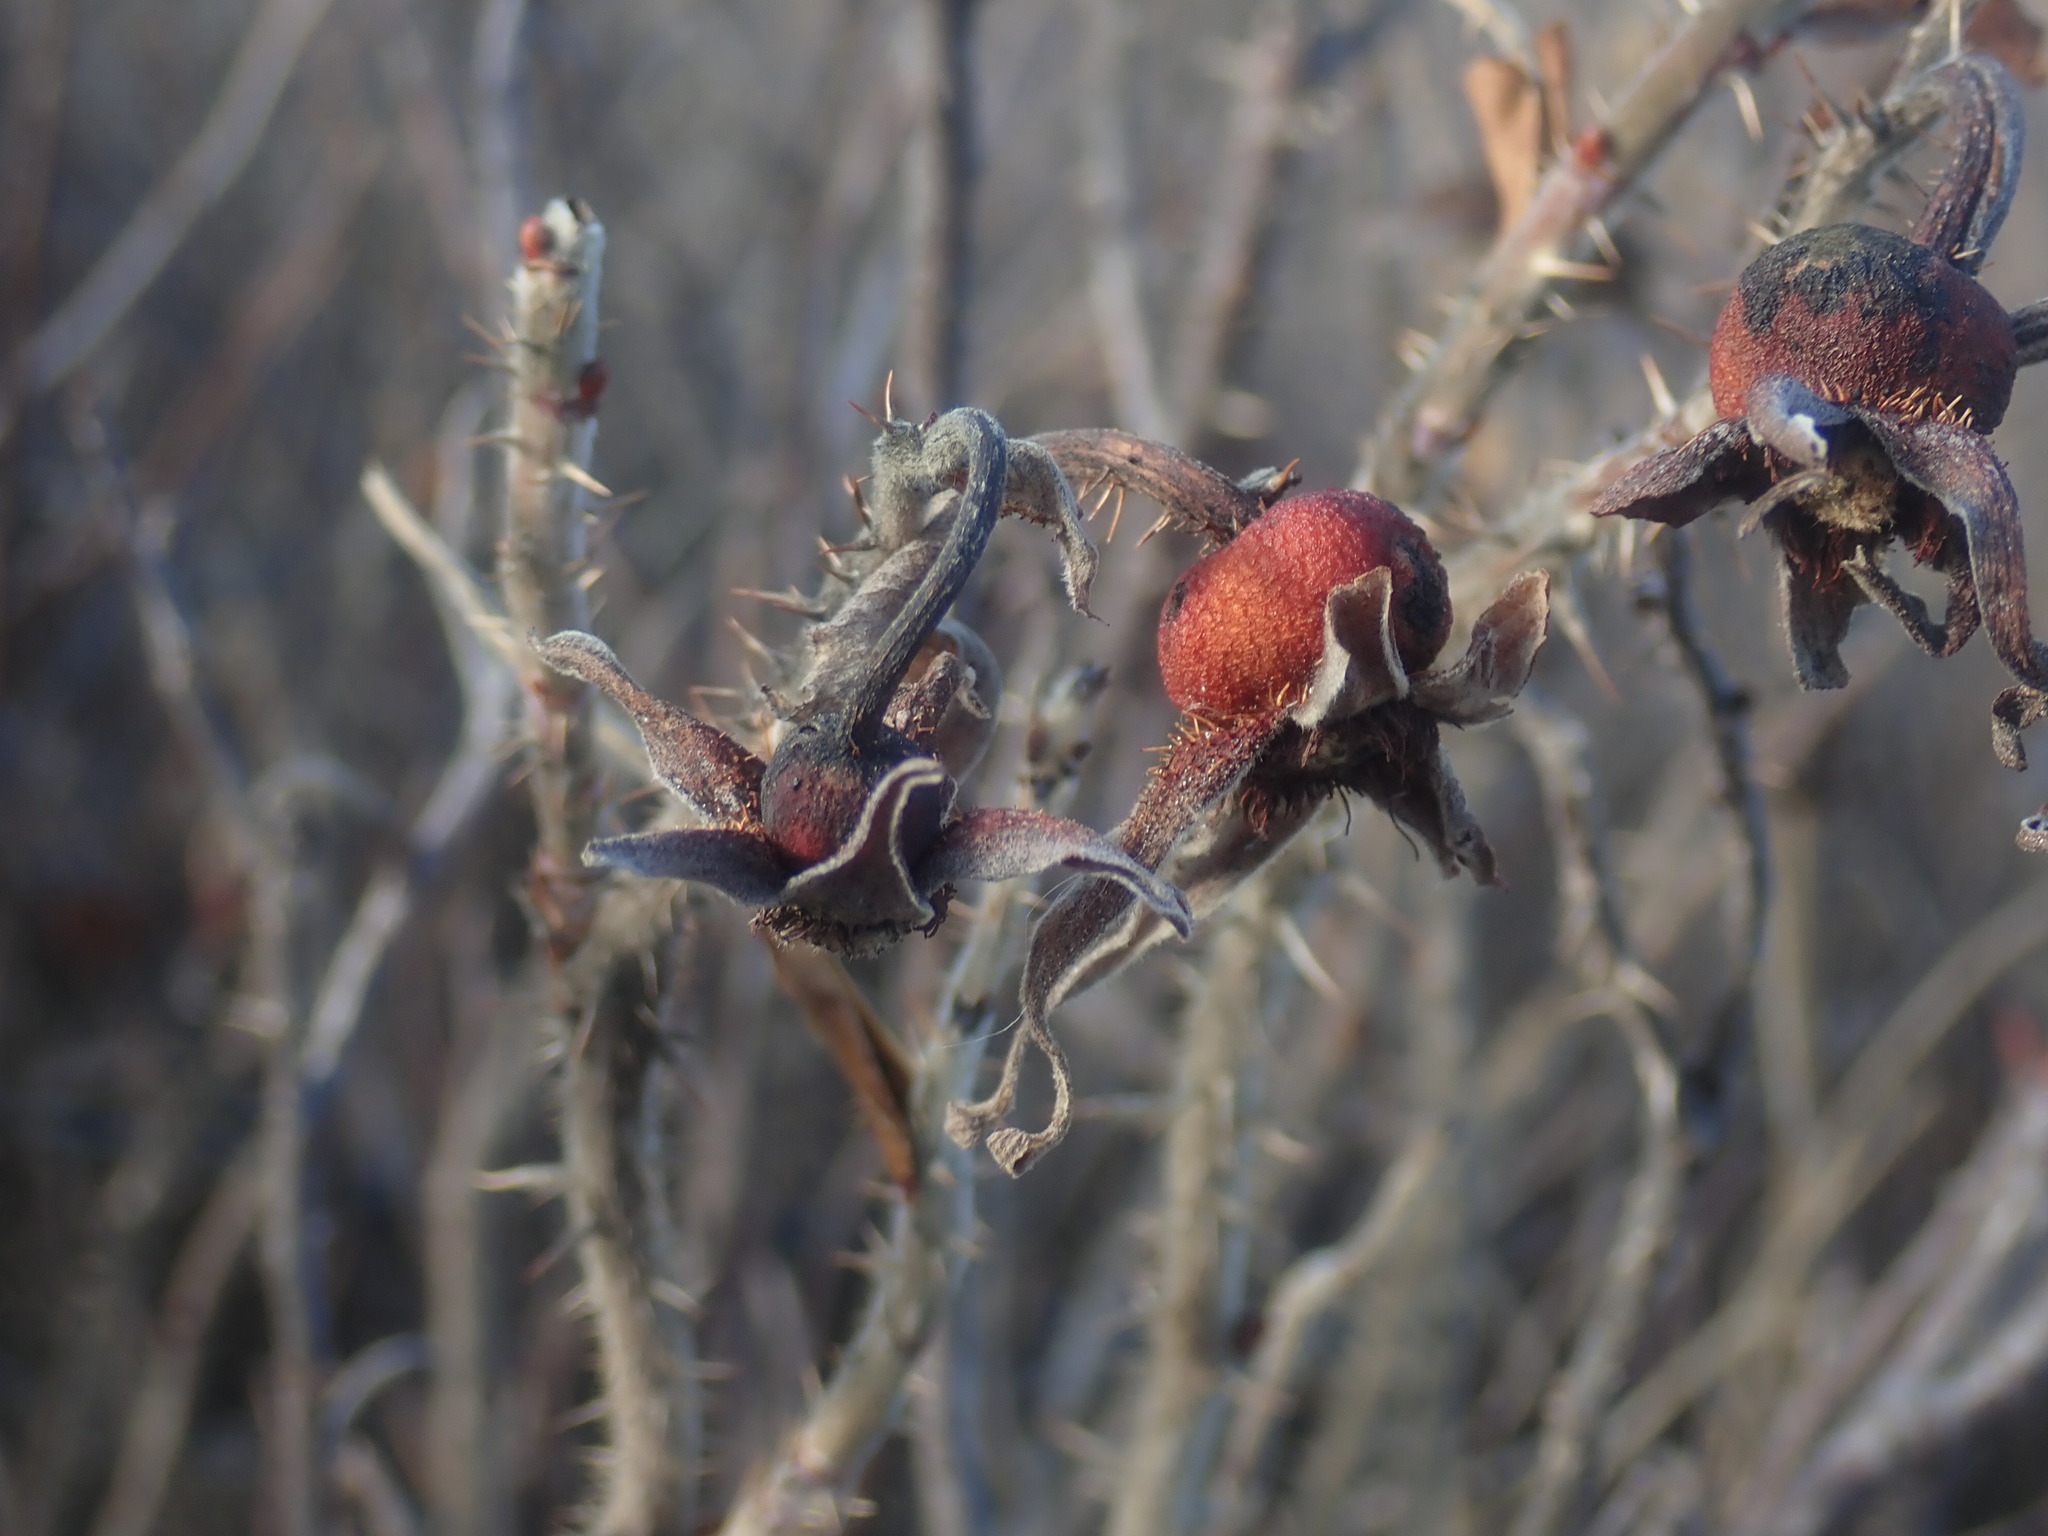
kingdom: Plantae
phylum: Tracheophyta
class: Magnoliopsida
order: Rosales
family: Rosaceae
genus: Rosa
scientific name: Rosa rugosa
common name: Japanese rose
